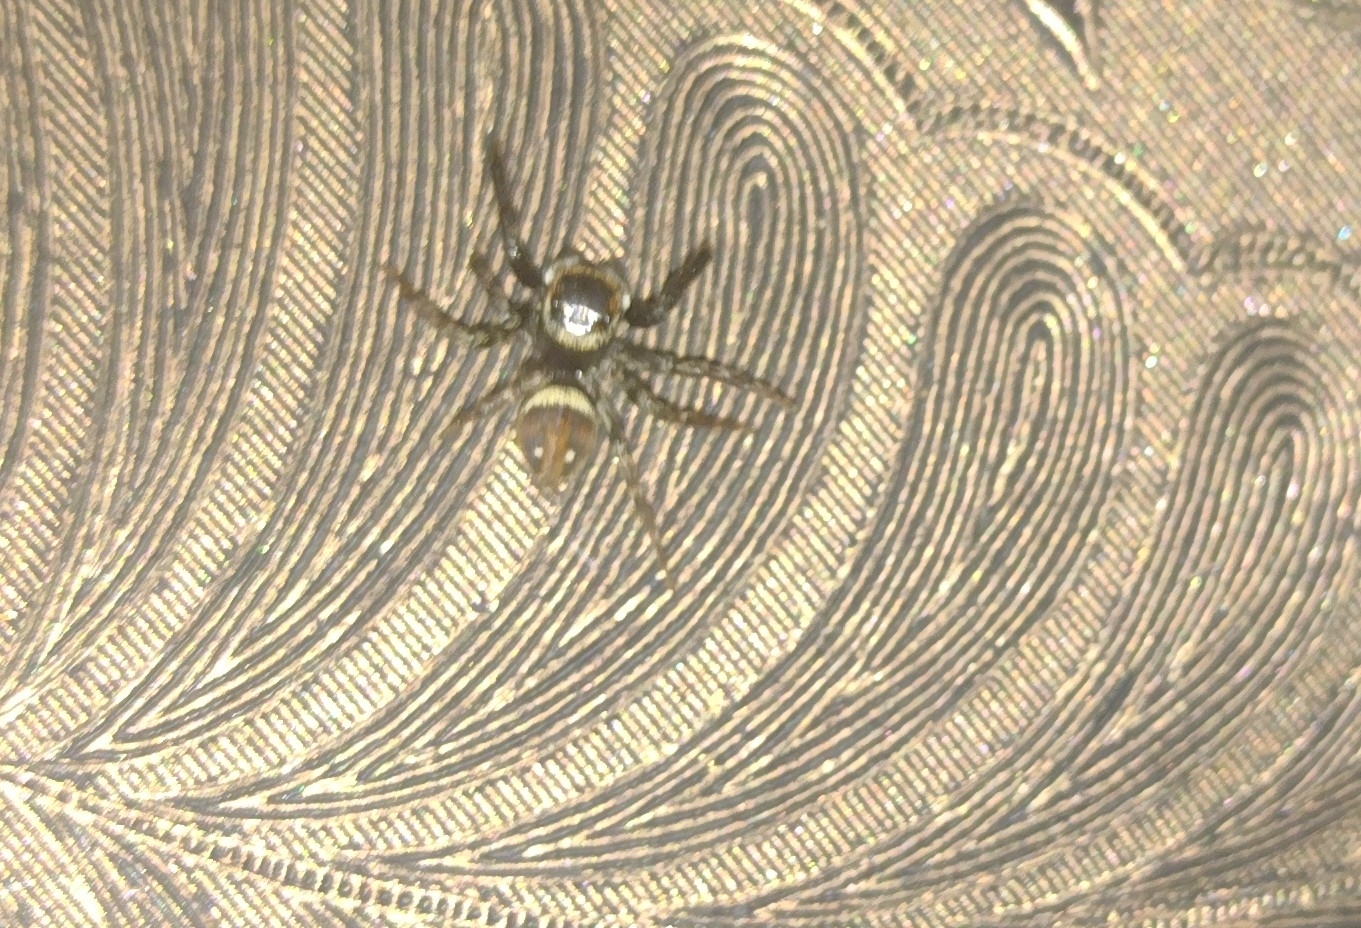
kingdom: Animalia
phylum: Arthropoda
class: Arachnida
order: Araneae
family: Salticidae
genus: Hasarius
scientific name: Hasarius adansoni
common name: Jumping spider
